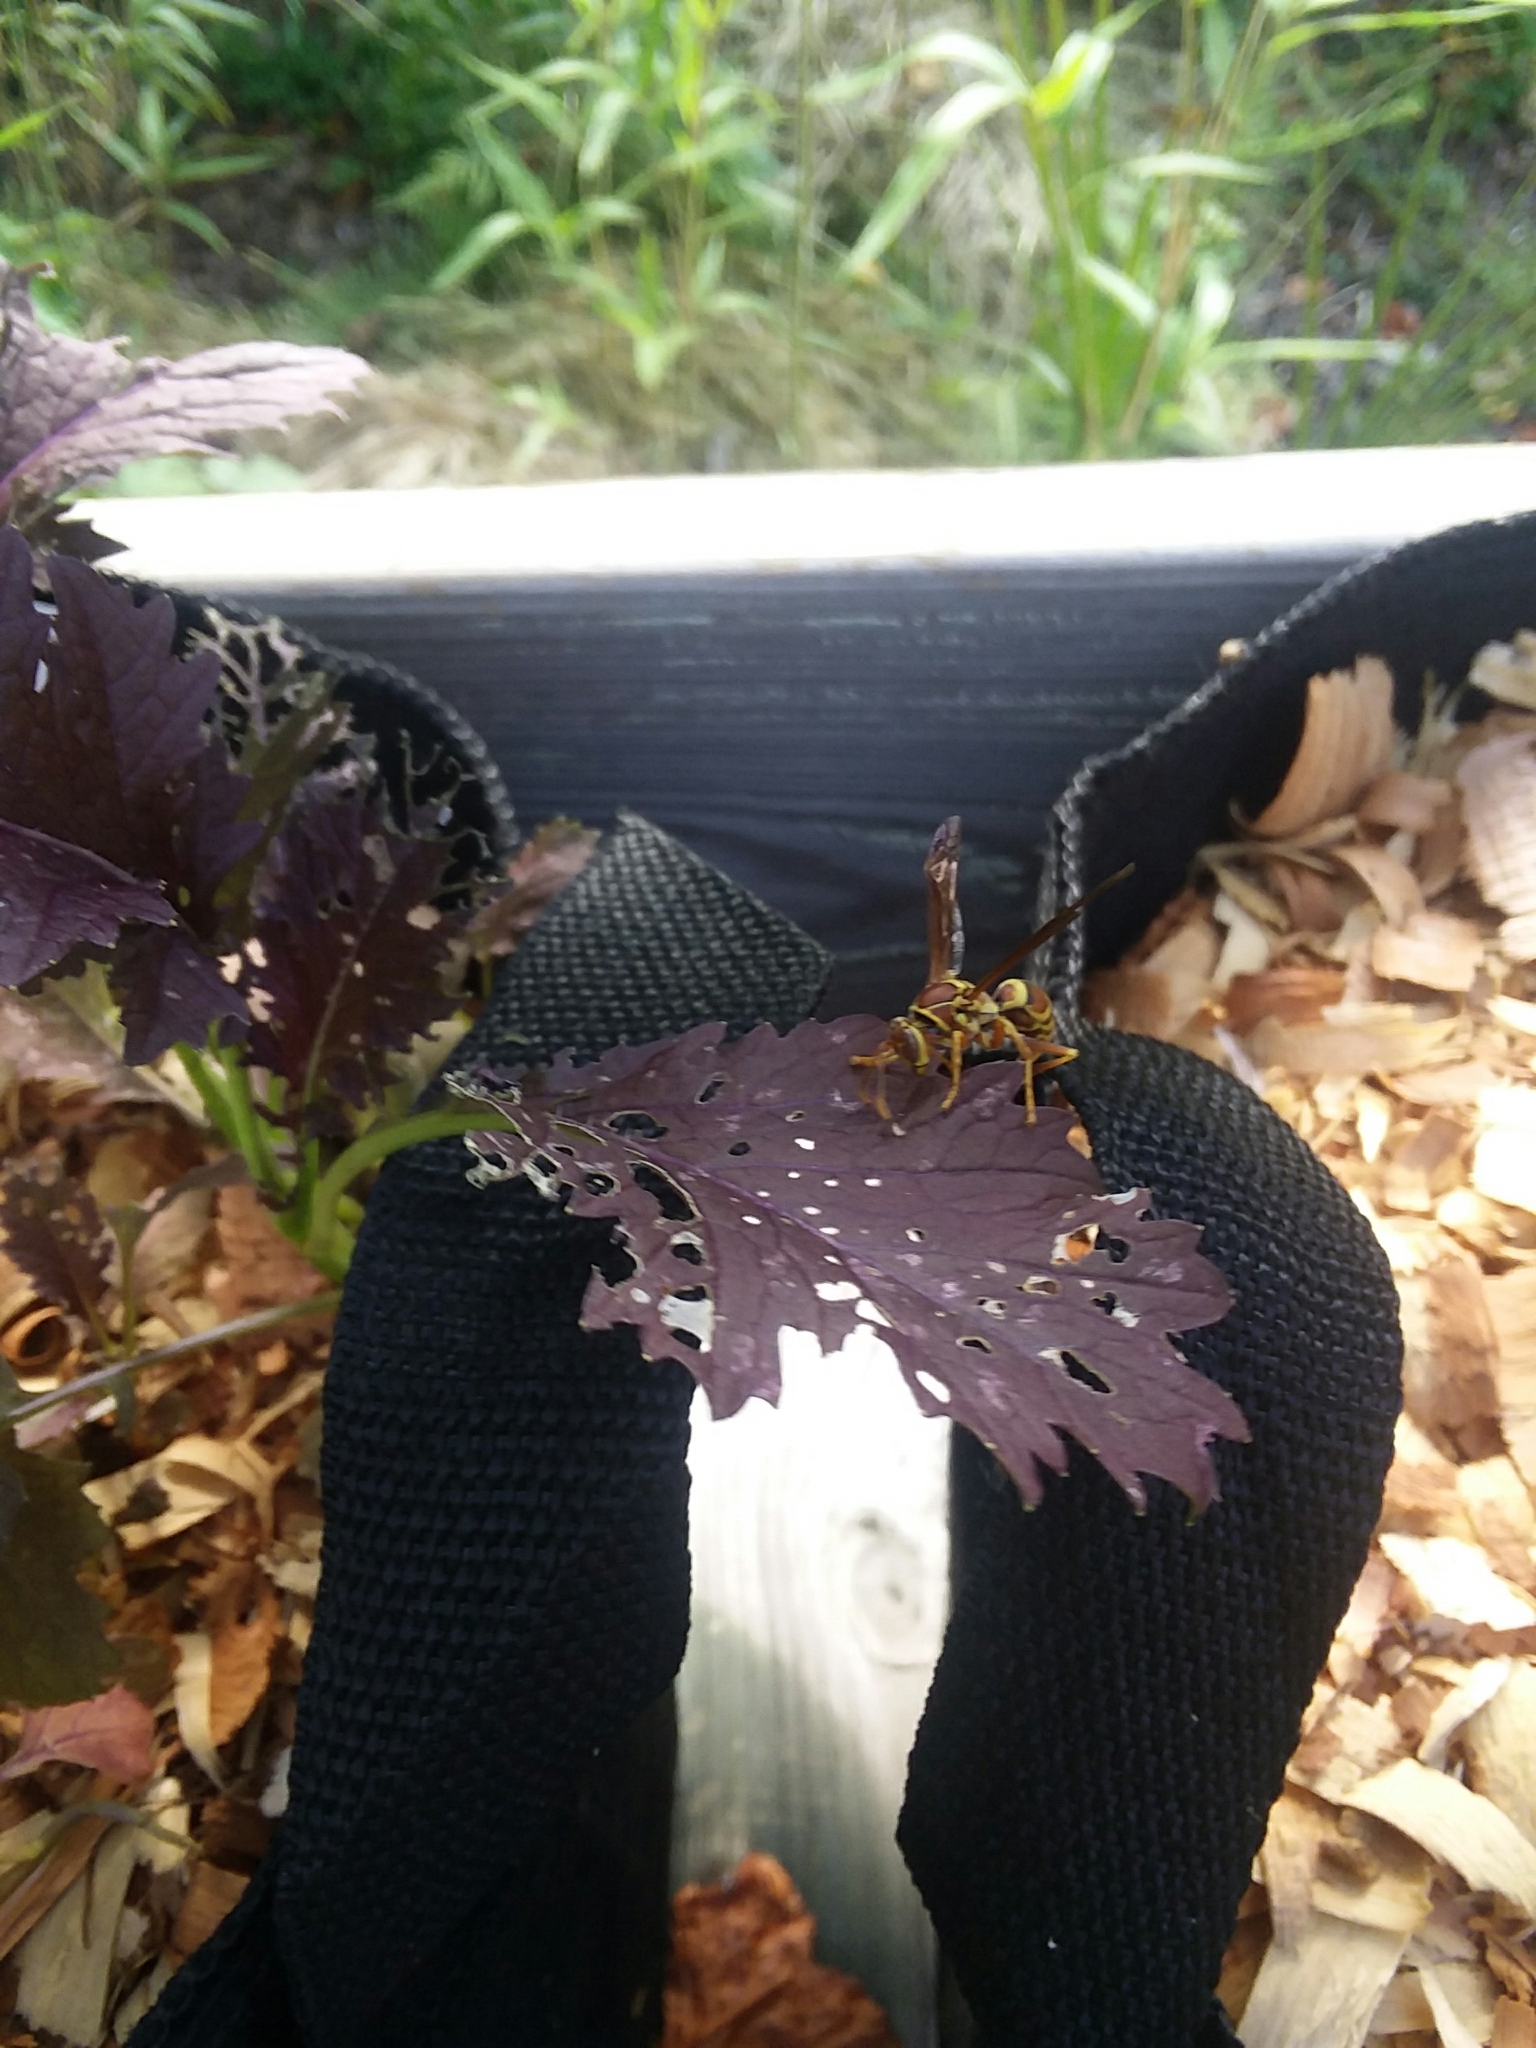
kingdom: Animalia
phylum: Arthropoda
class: Insecta
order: Hymenoptera
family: Eumenidae
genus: Polistes
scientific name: Polistes exclamans
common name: Paper wasp
